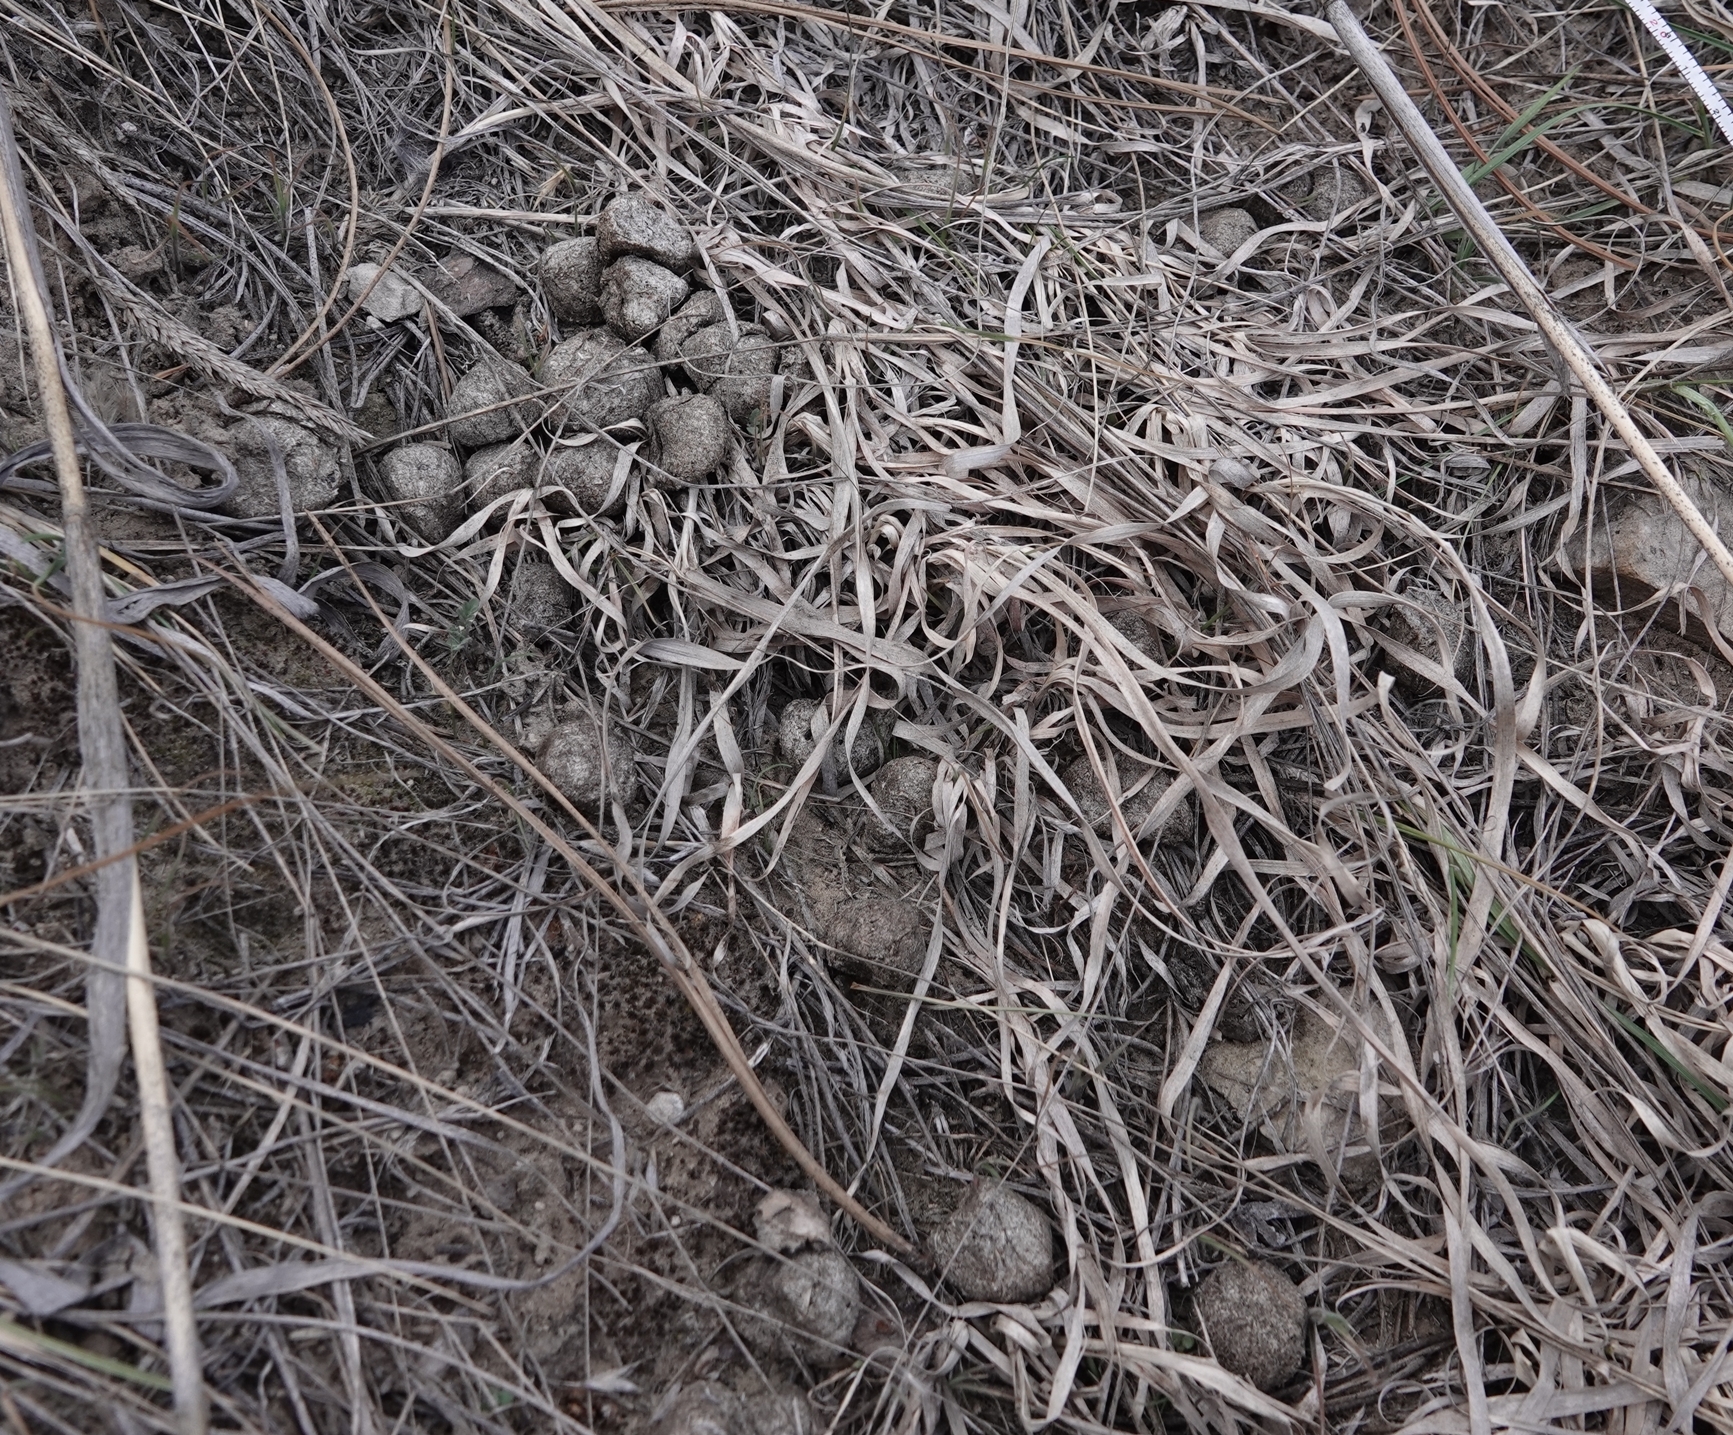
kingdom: Animalia
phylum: Chordata
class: Mammalia
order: Artiodactyla
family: Cervidae
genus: Alces
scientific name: Alces alces
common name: Moose
